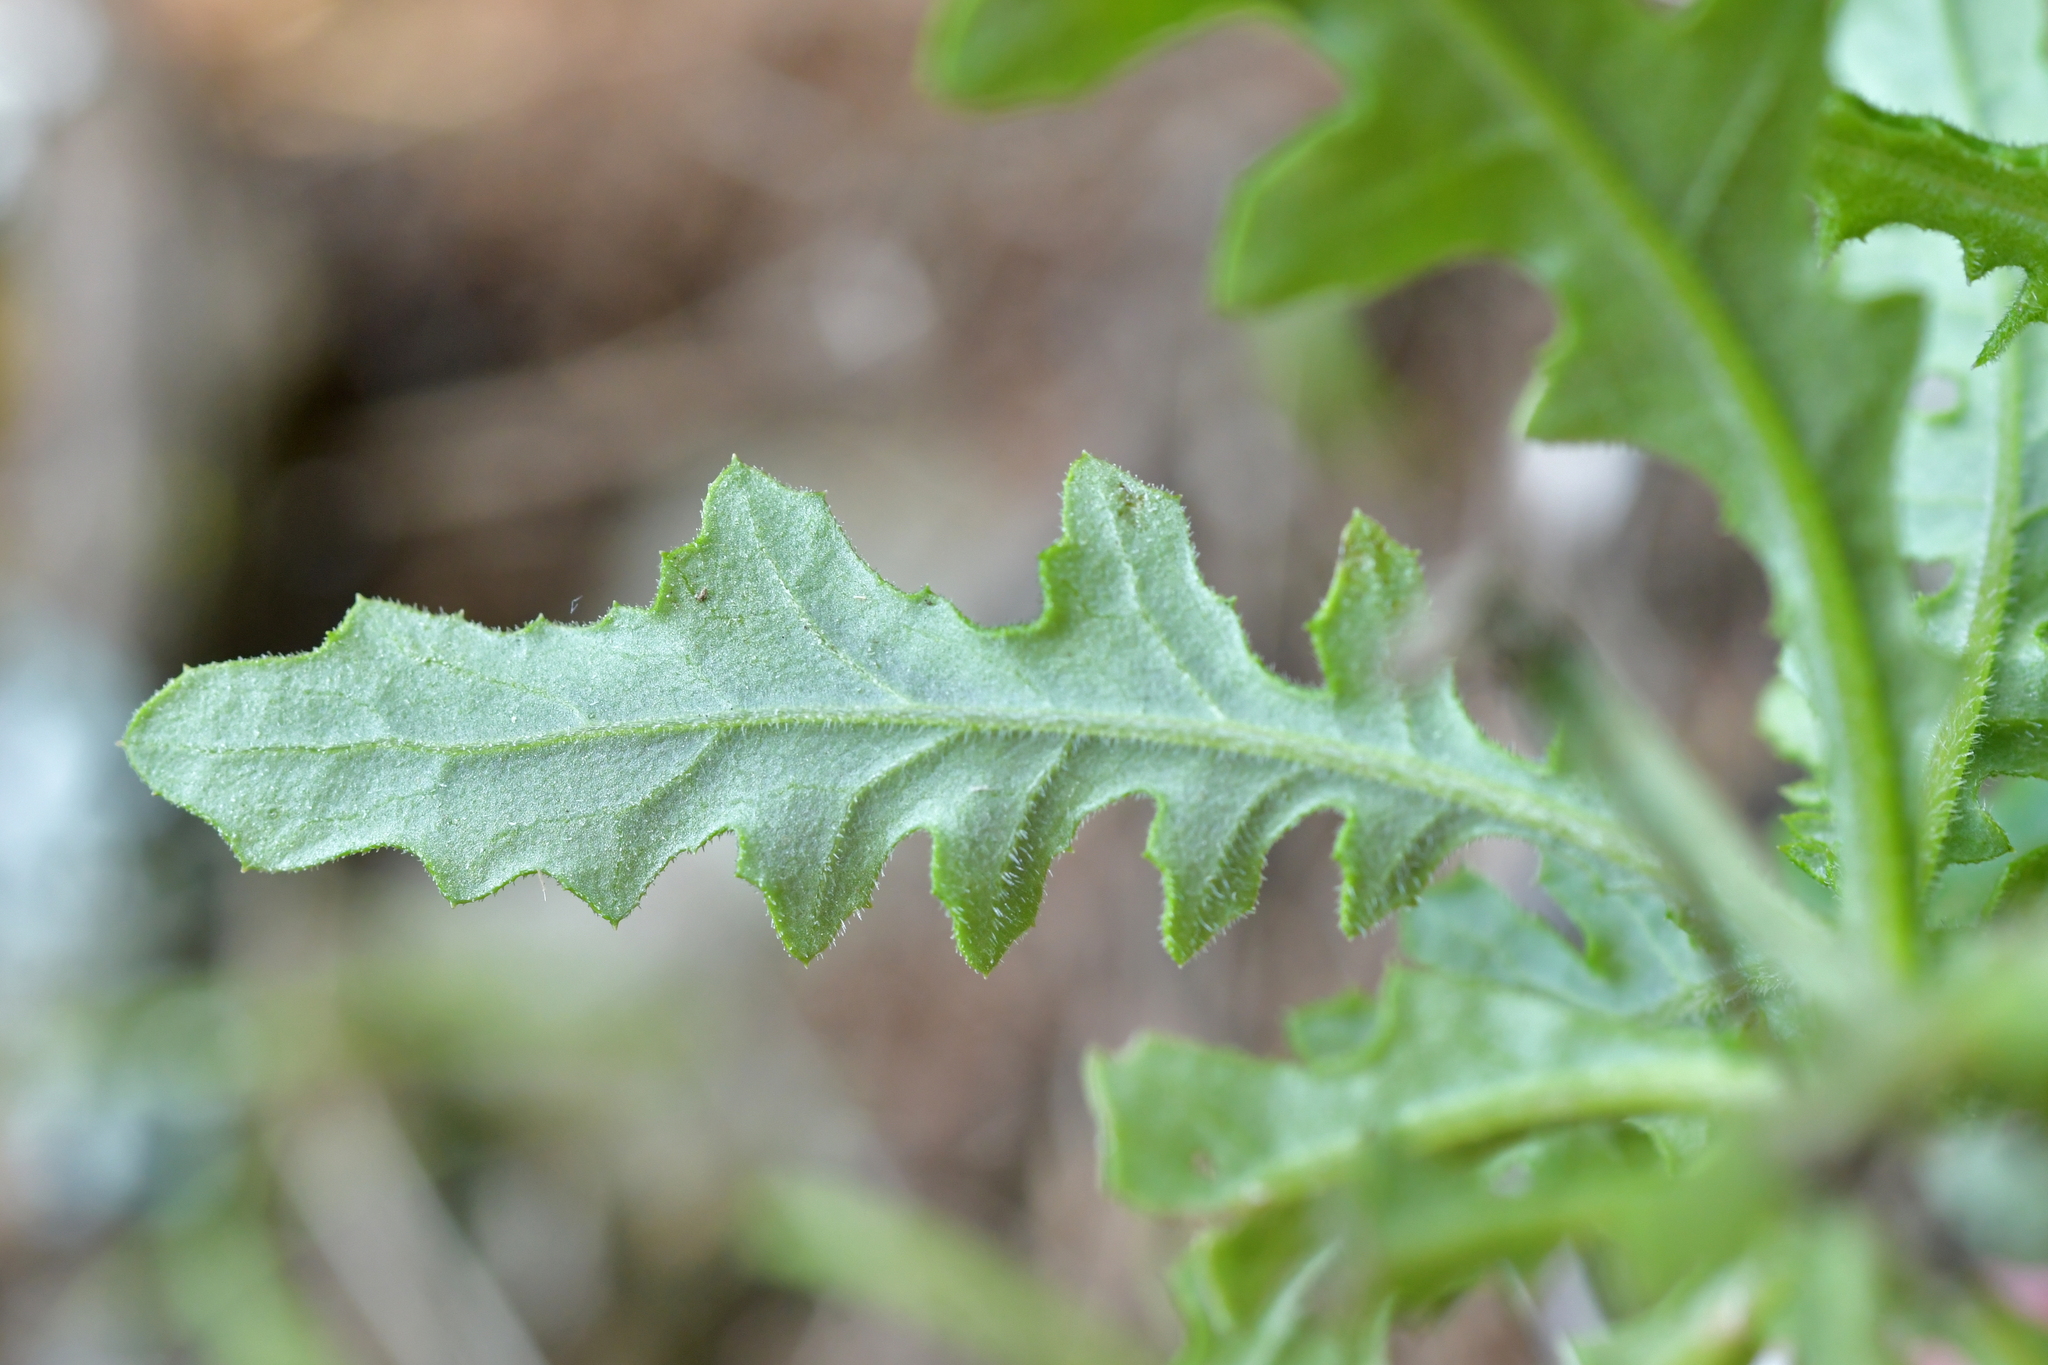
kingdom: Plantae
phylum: Tracheophyta
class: Magnoliopsida
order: Asterales
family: Asteraceae
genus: Senecio
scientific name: Senecio hispidulus
